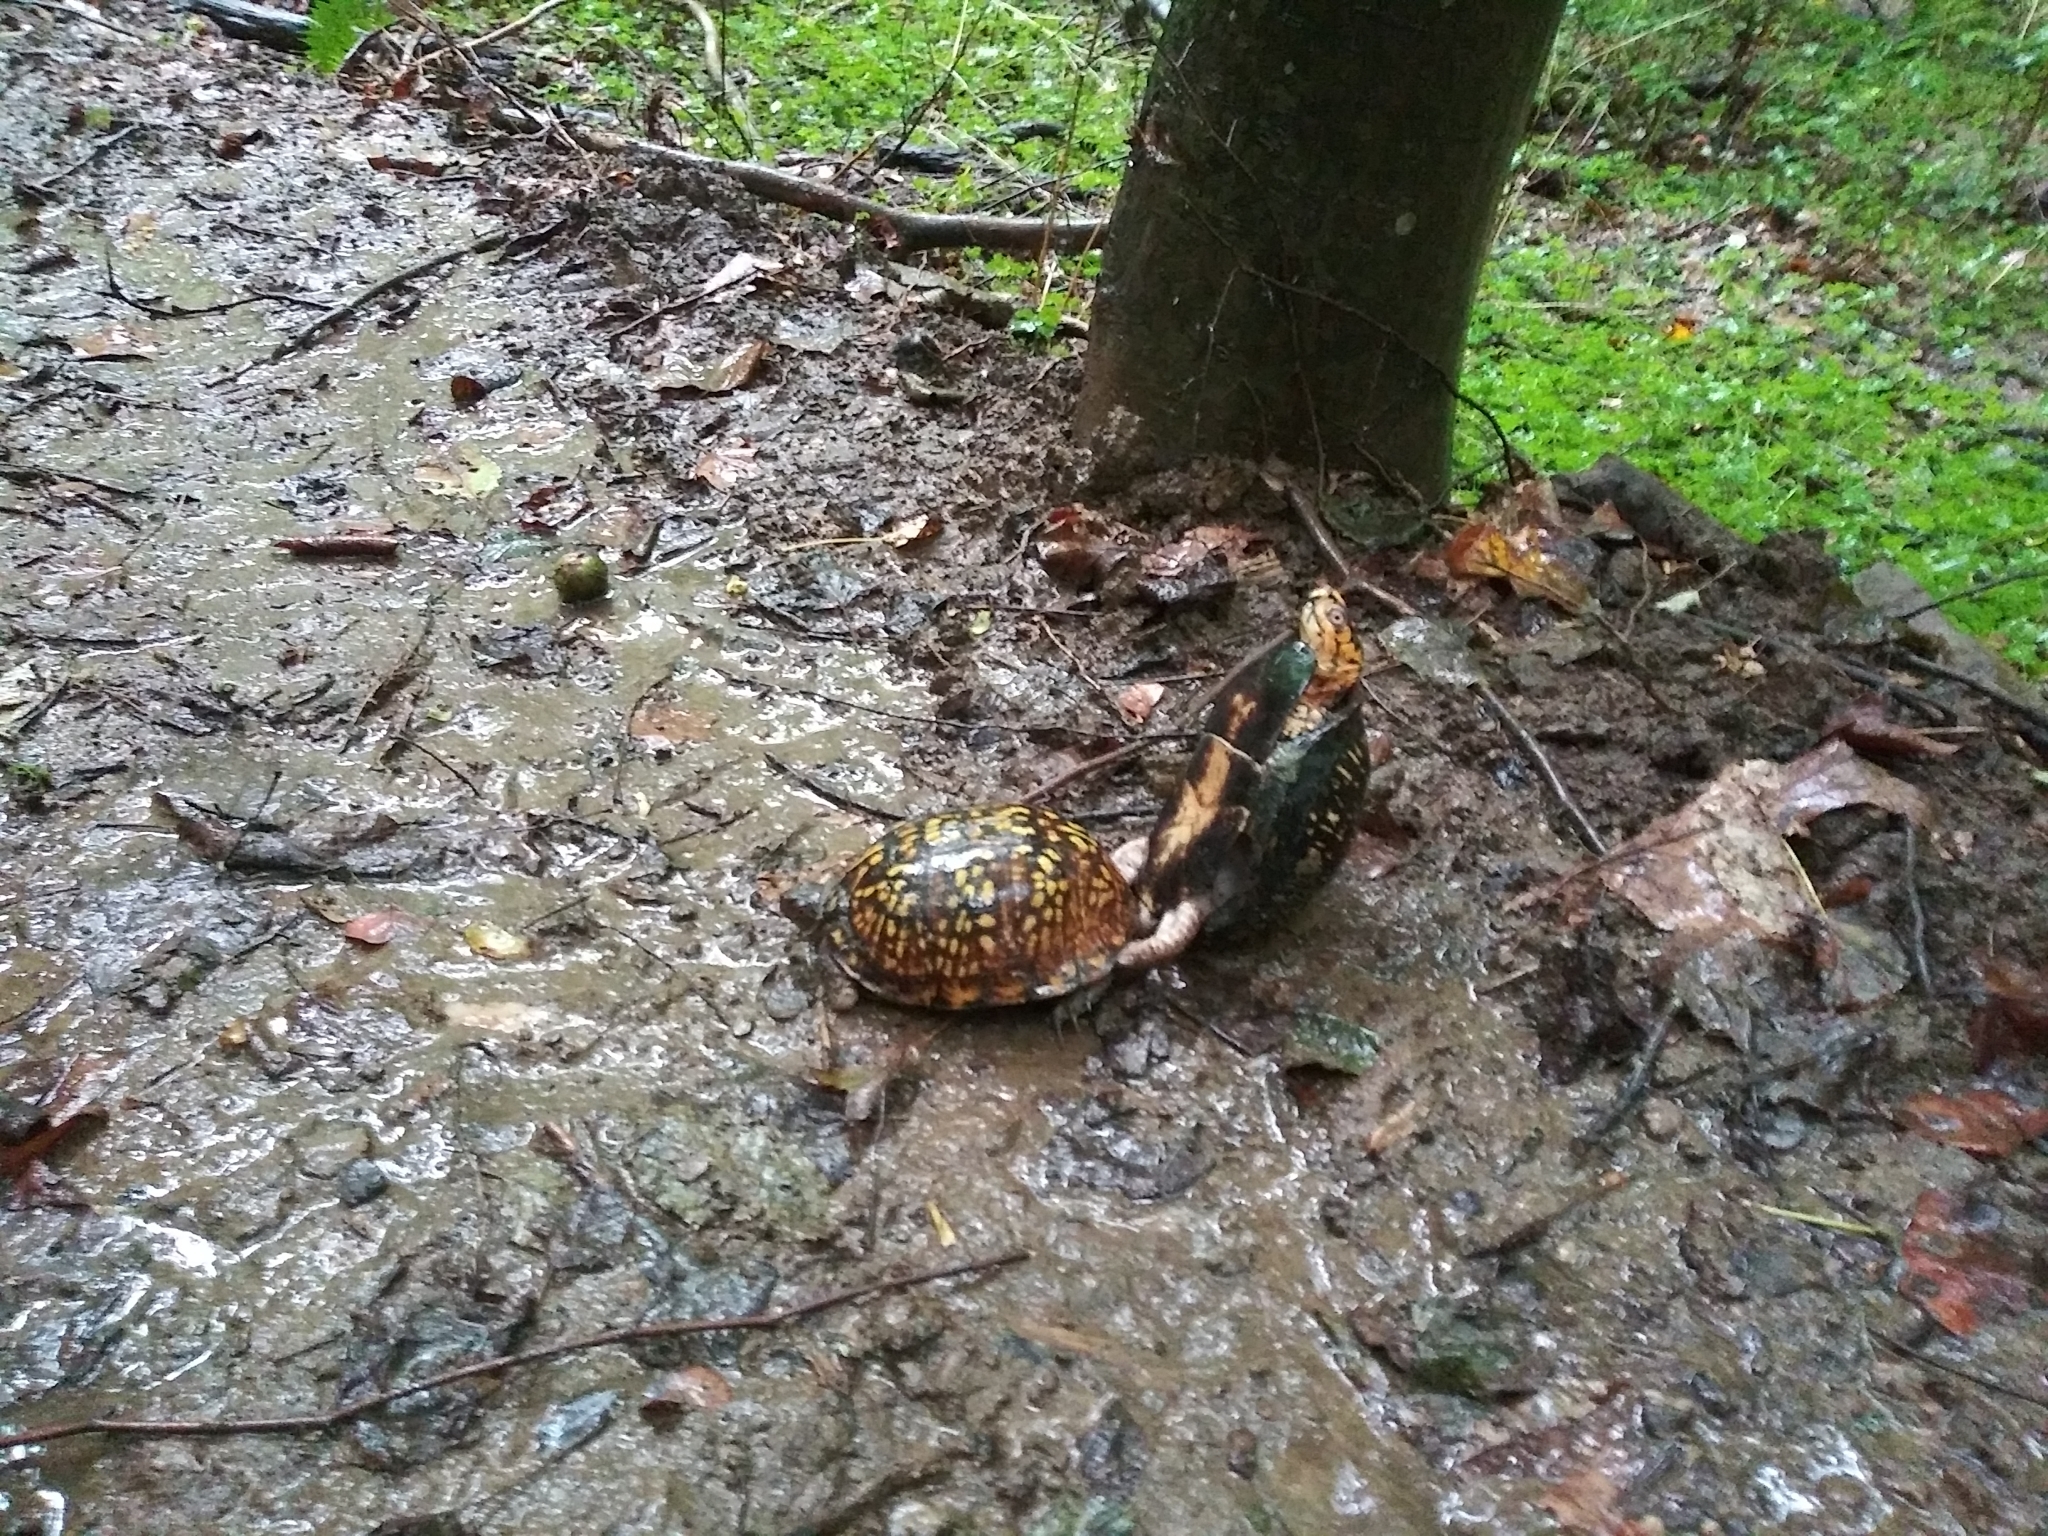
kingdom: Animalia
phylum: Chordata
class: Testudines
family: Emydidae
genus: Terrapene
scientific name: Terrapene carolina
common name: Common box turtle
